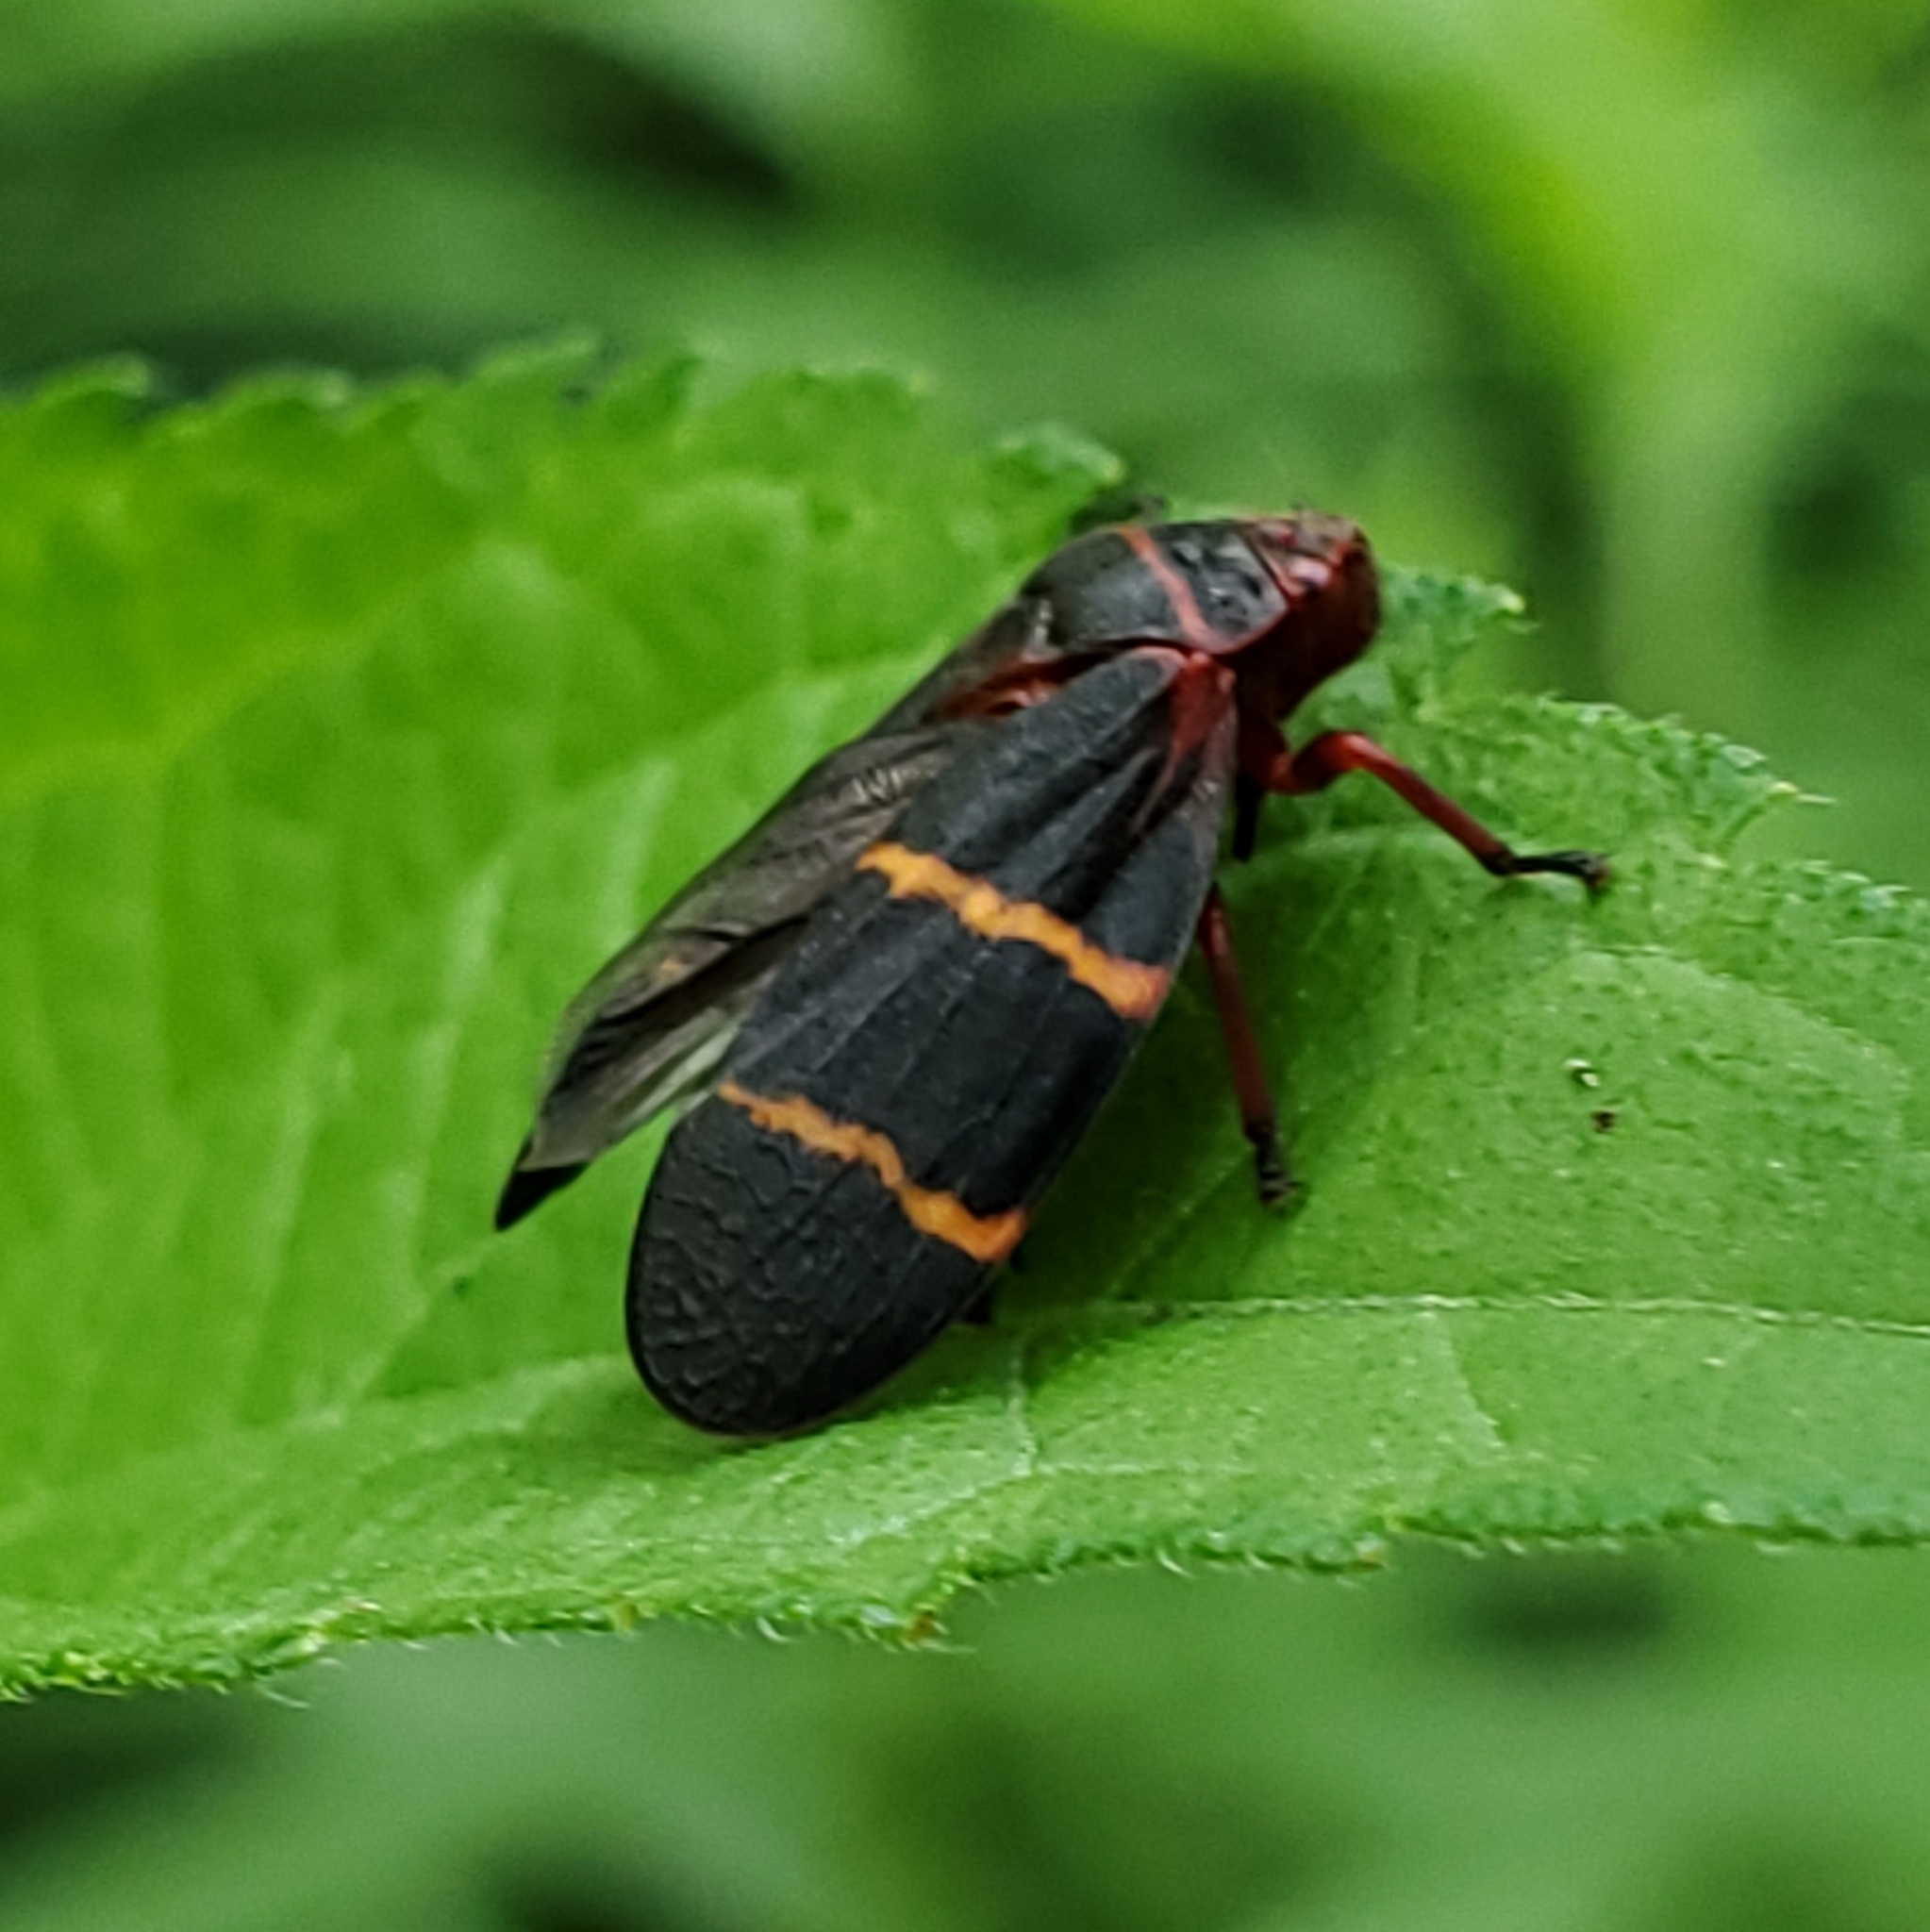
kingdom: Animalia
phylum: Arthropoda
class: Insecta
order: Hemiptera
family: Cercopidae
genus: Prosapia
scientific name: Prosapia bicincta
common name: Twolined spittlebug
